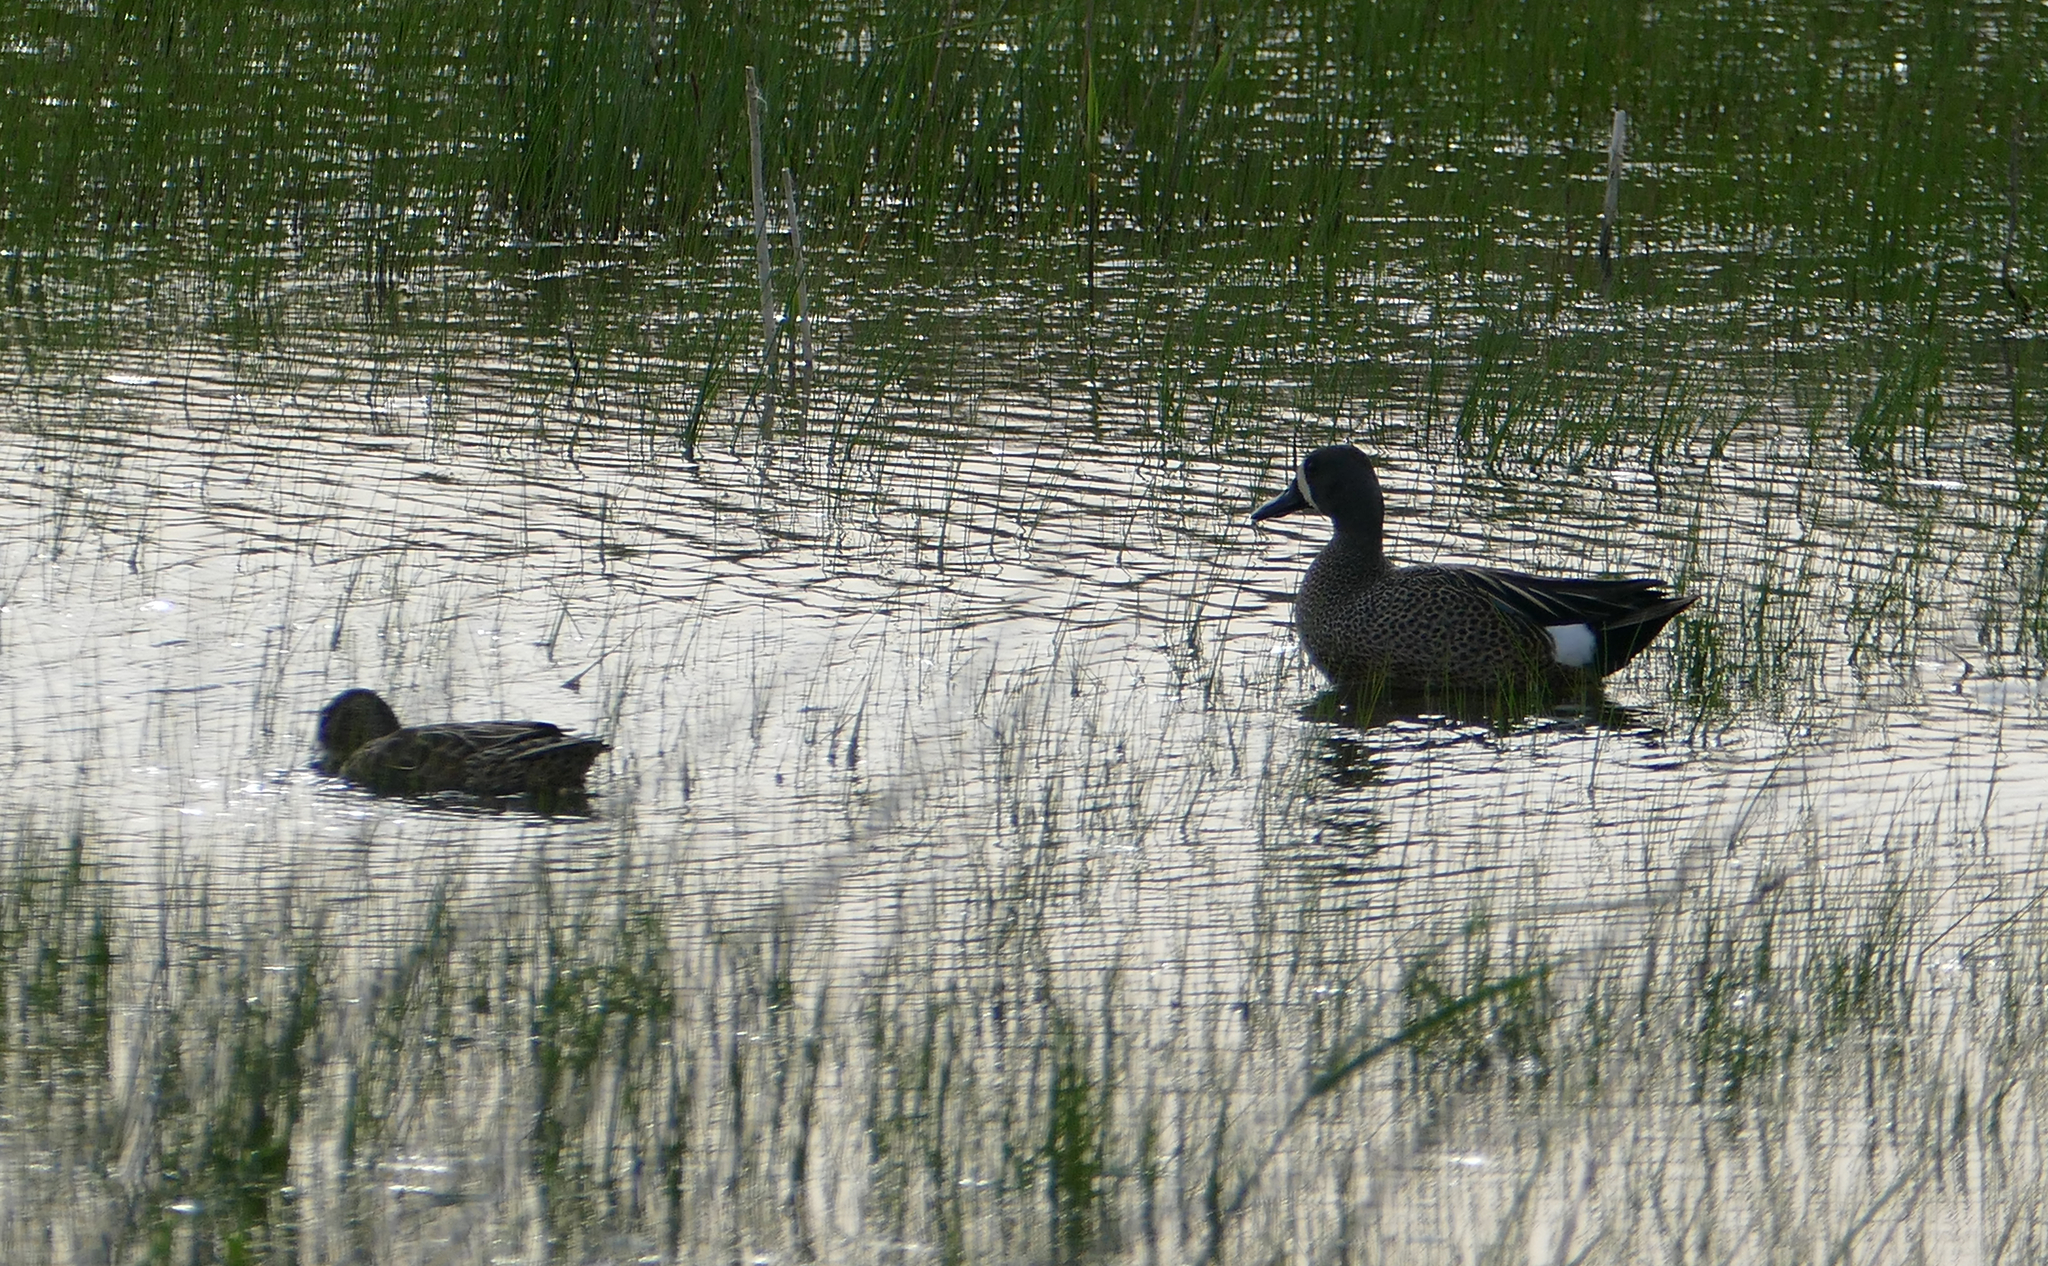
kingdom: Animalia
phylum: Chordata
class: Aves
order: Anseriformes
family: Anatidae
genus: Spatula
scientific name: Spatula discors
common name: Blue-winged teal
